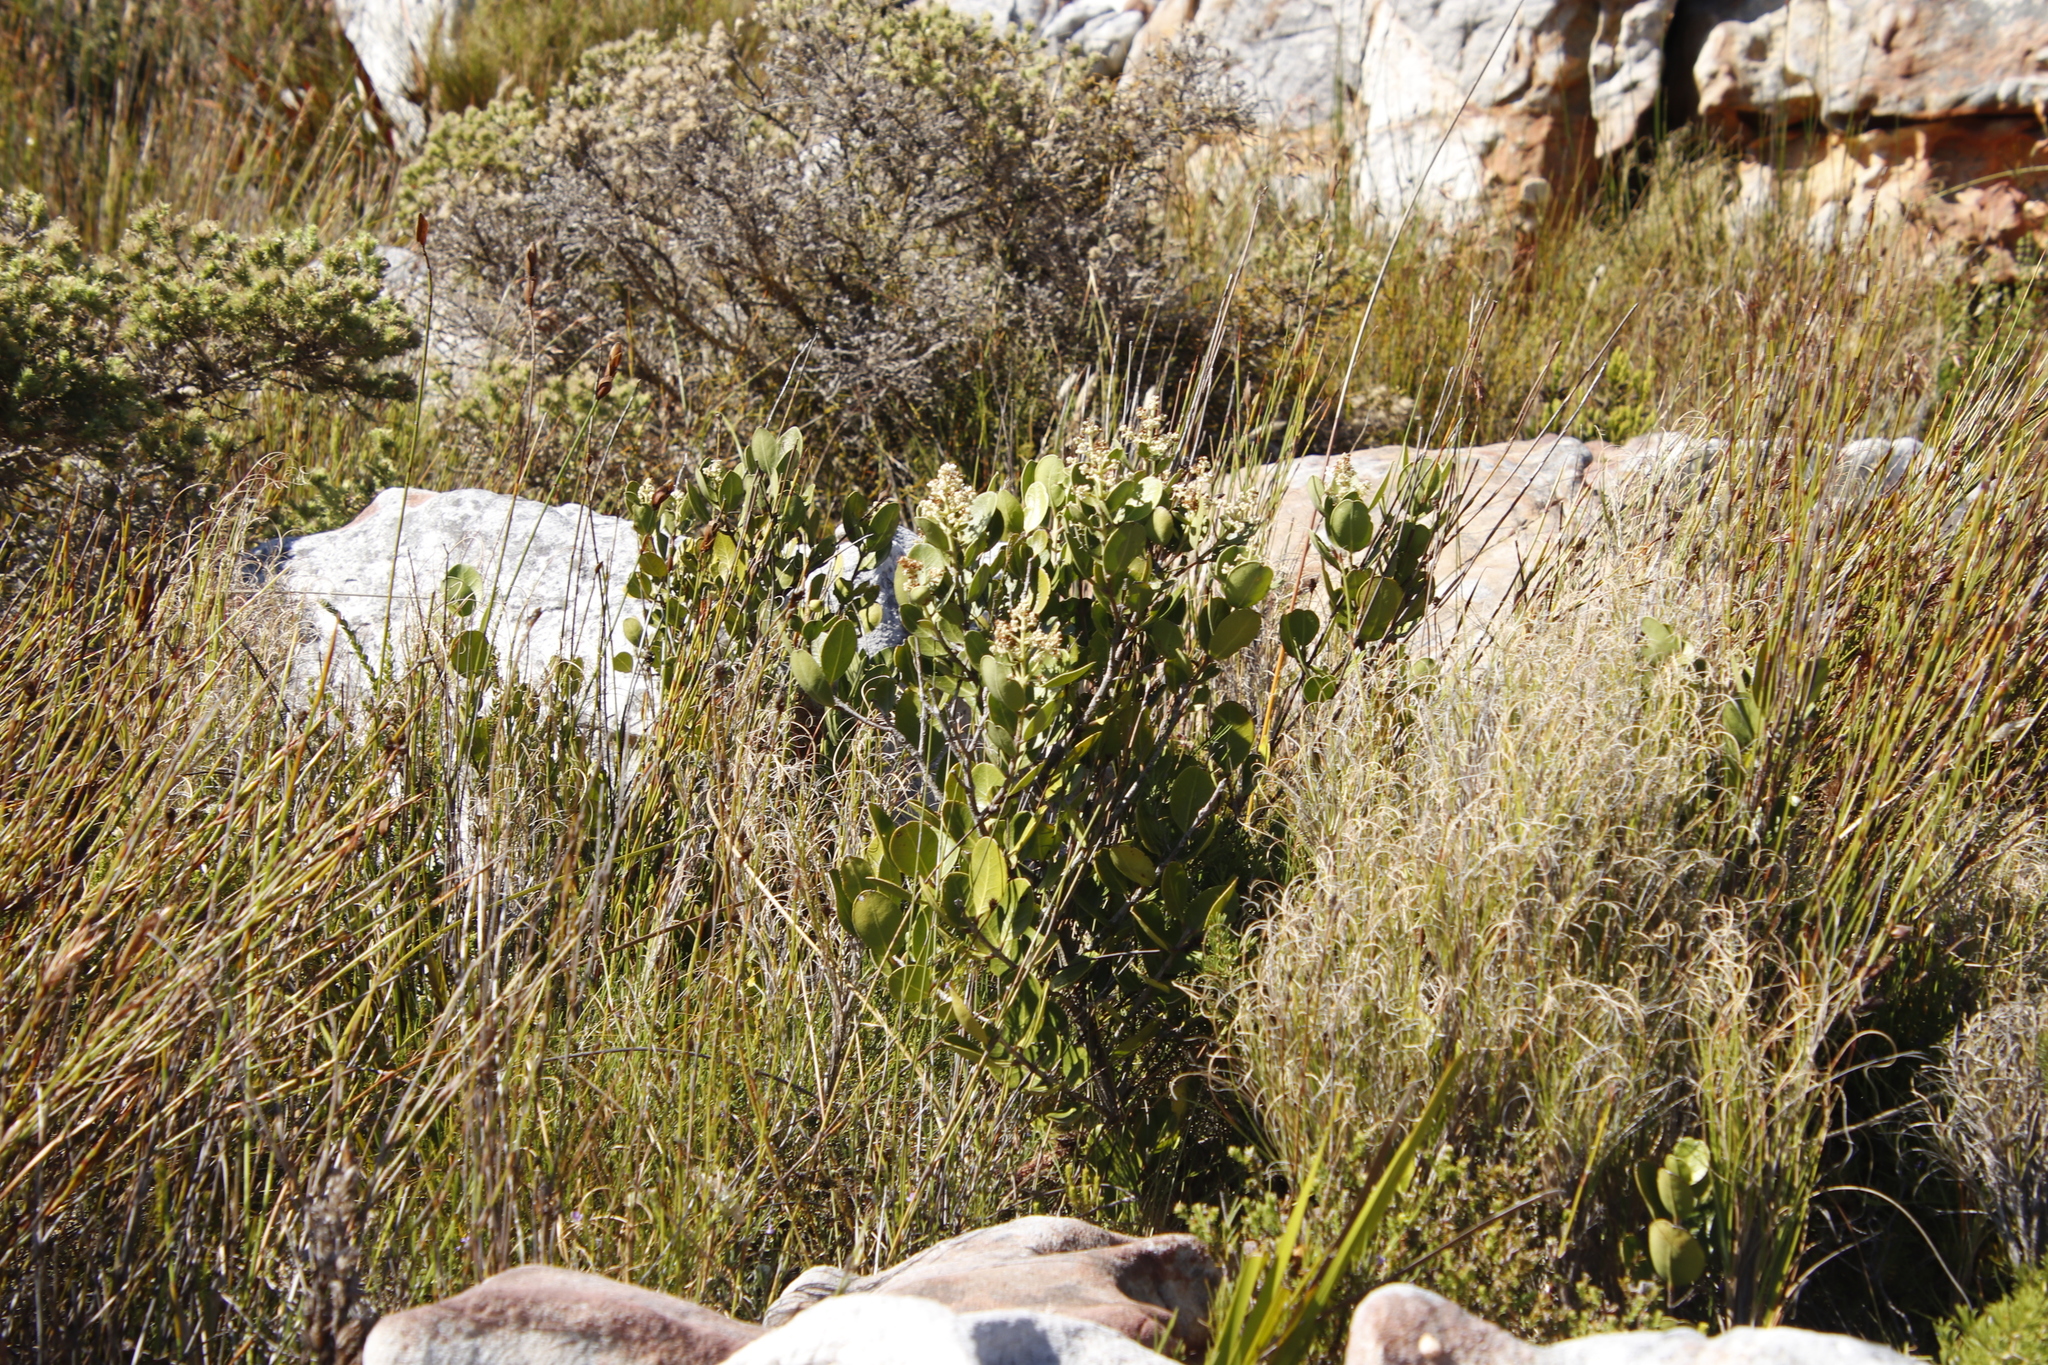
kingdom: Plantae
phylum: Tracheophyta
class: Magnoliopsida
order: Celastrales
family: Celastraceae
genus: Cassine
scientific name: Cassine peragua
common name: Cape saffron
